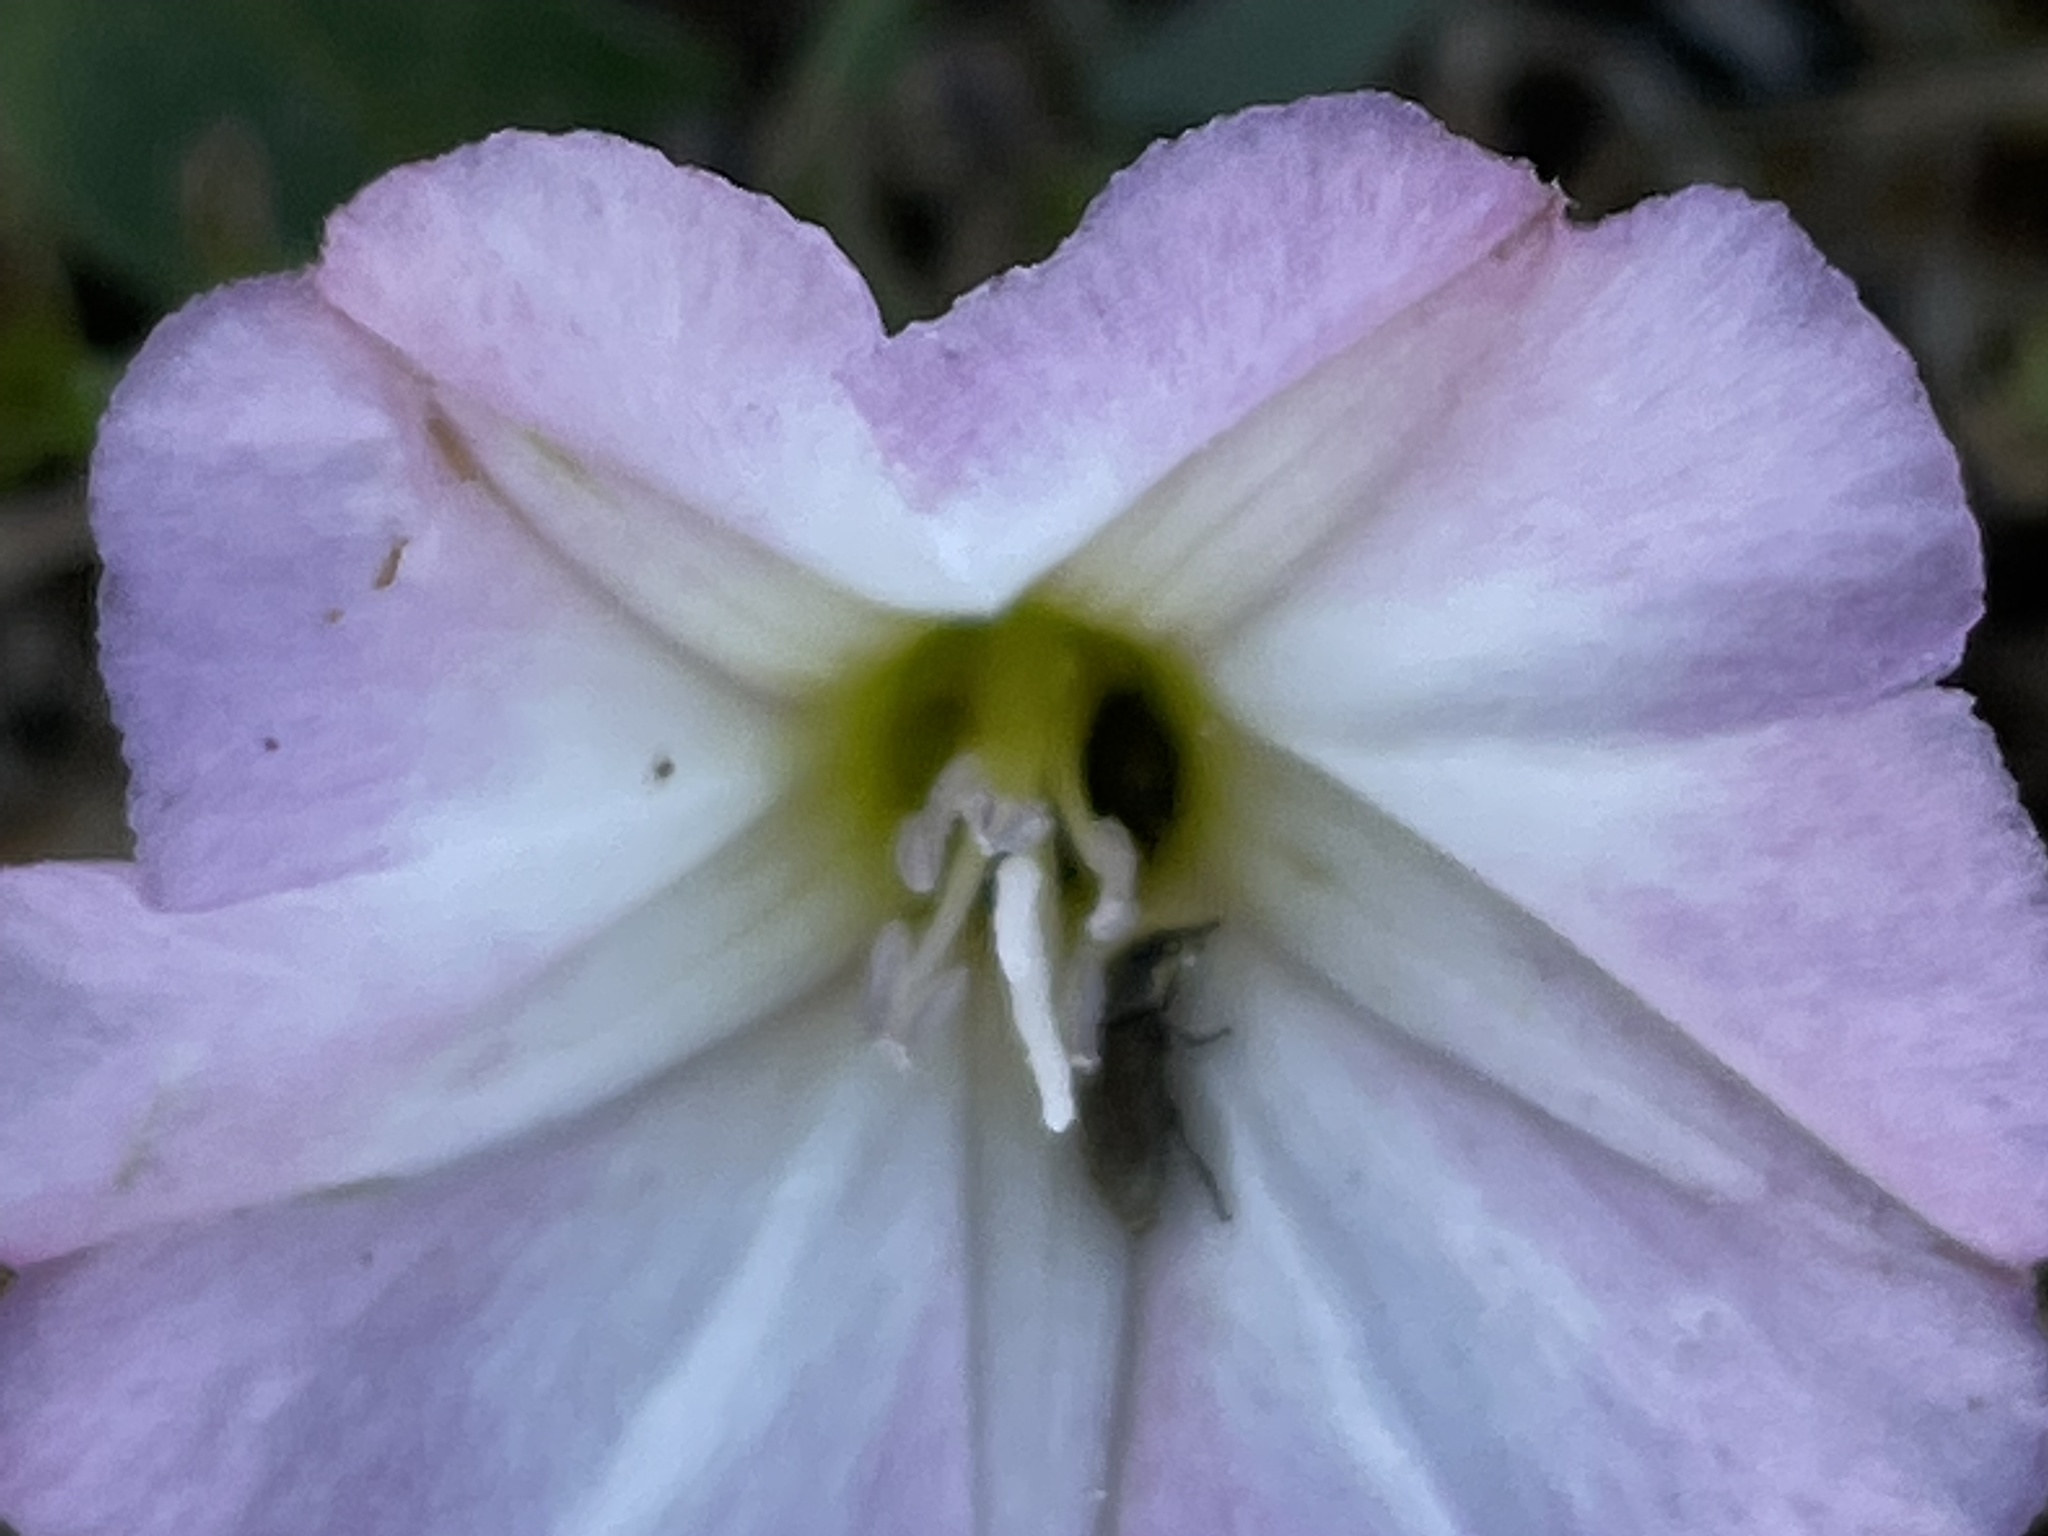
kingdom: Plantae
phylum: Tracheophyta
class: Magnoliopsida
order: Solanales
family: Convolvulaceae
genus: Convolvulus
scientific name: Convolvulus arvensis
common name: Field bindweed
